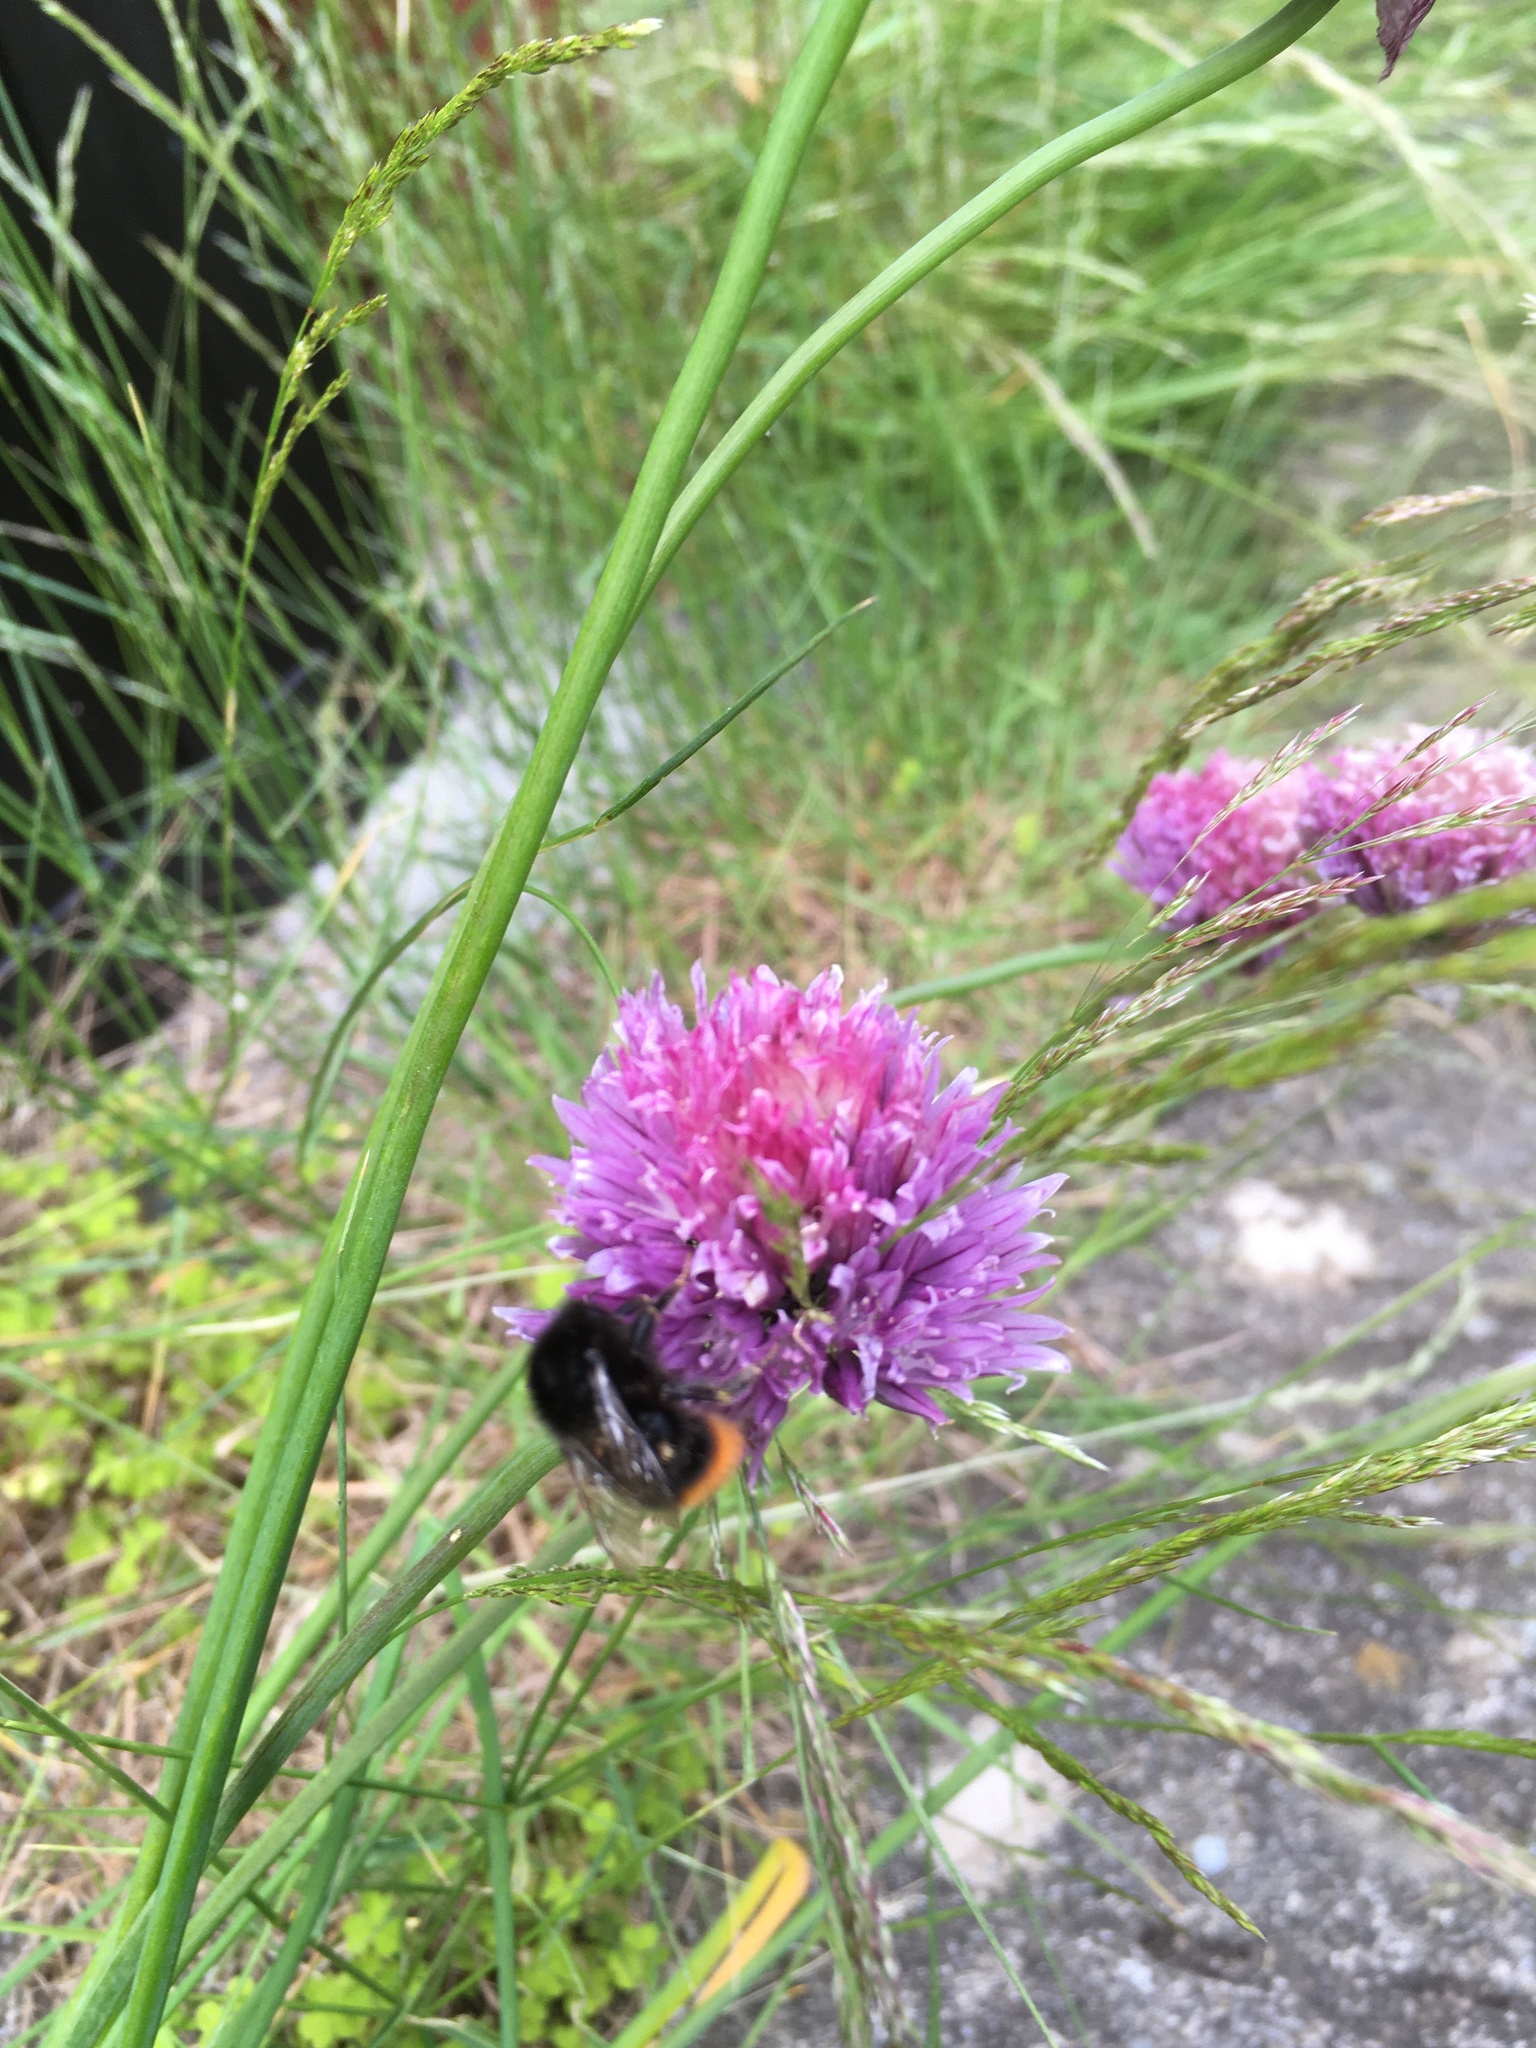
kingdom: Animalia
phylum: Arthropoda
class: Insecta
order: Hymenoptera
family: Apidae
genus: Bombus
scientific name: Bombus lapidarius
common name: Large red-tailed humble-bee
